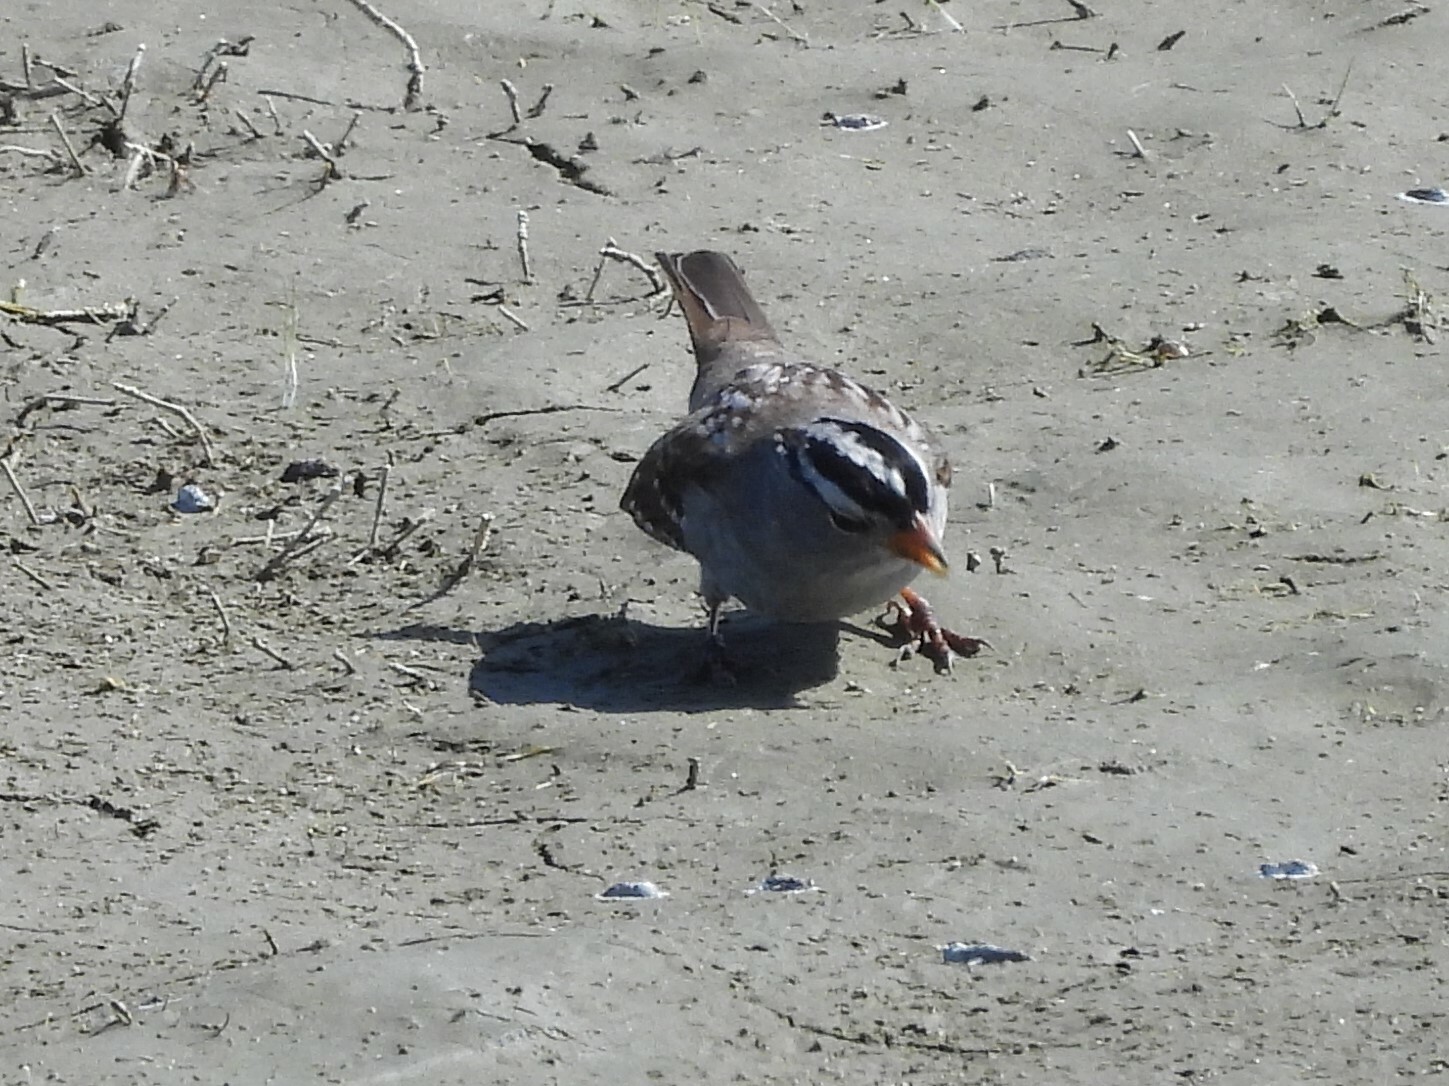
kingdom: Animalia
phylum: Chordata
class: Aves
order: Passeriformes
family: Passerellidae
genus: Zonotrichia
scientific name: Zonotrichia leucophrys
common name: White-crowned sparrow
